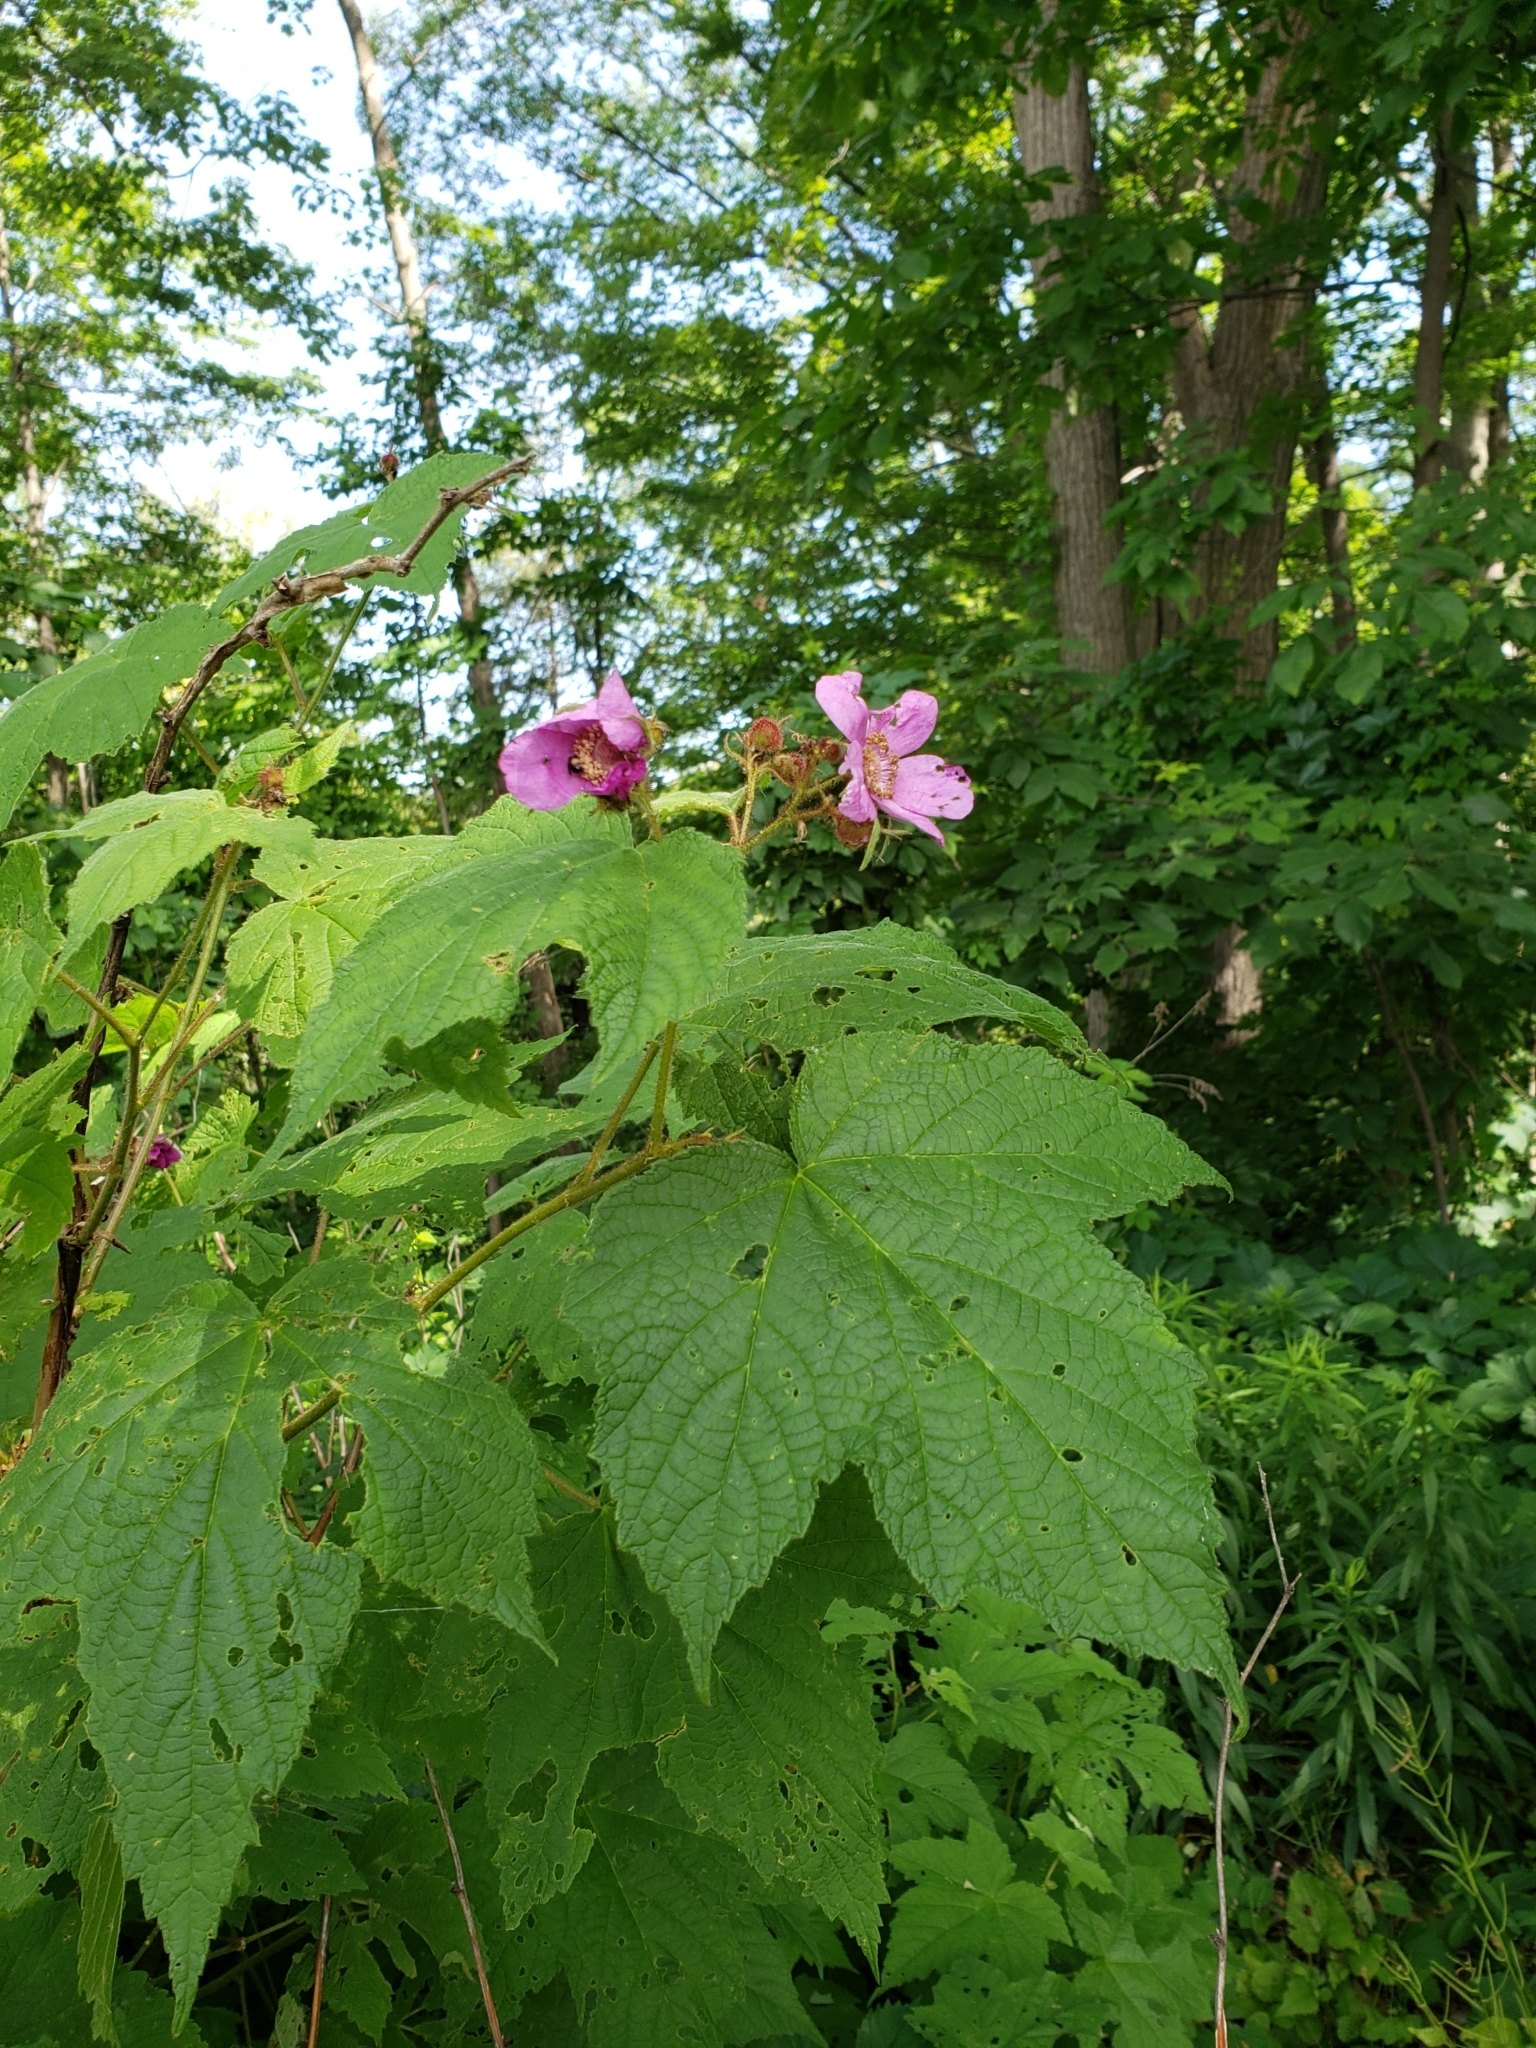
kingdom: Plantae
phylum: Tracheophyta
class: Magnoliopsida
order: Rosales
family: Rosaceae
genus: Rubus
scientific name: Rubus odoratus
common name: Purple-flowered raspberry
